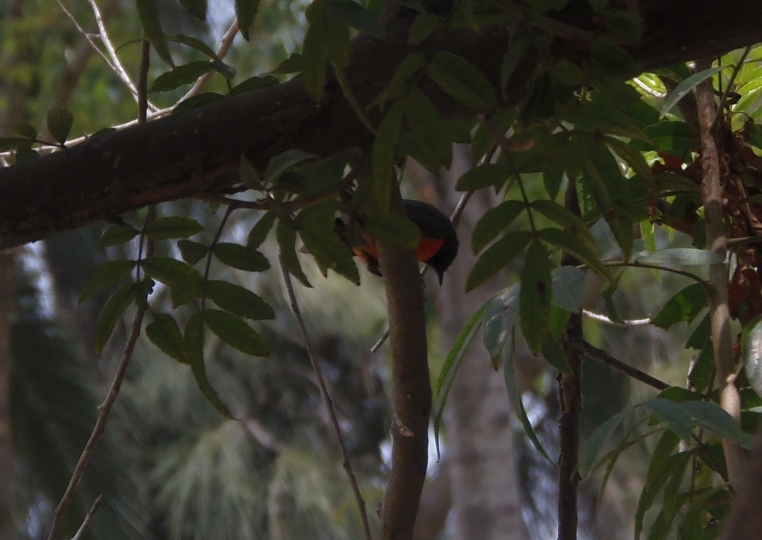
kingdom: Animalia
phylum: Chordata
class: Aves
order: Passeriformes
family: Parulidae
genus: Myioborus
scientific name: Myioborus miniatus
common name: Slate-throated redstart
